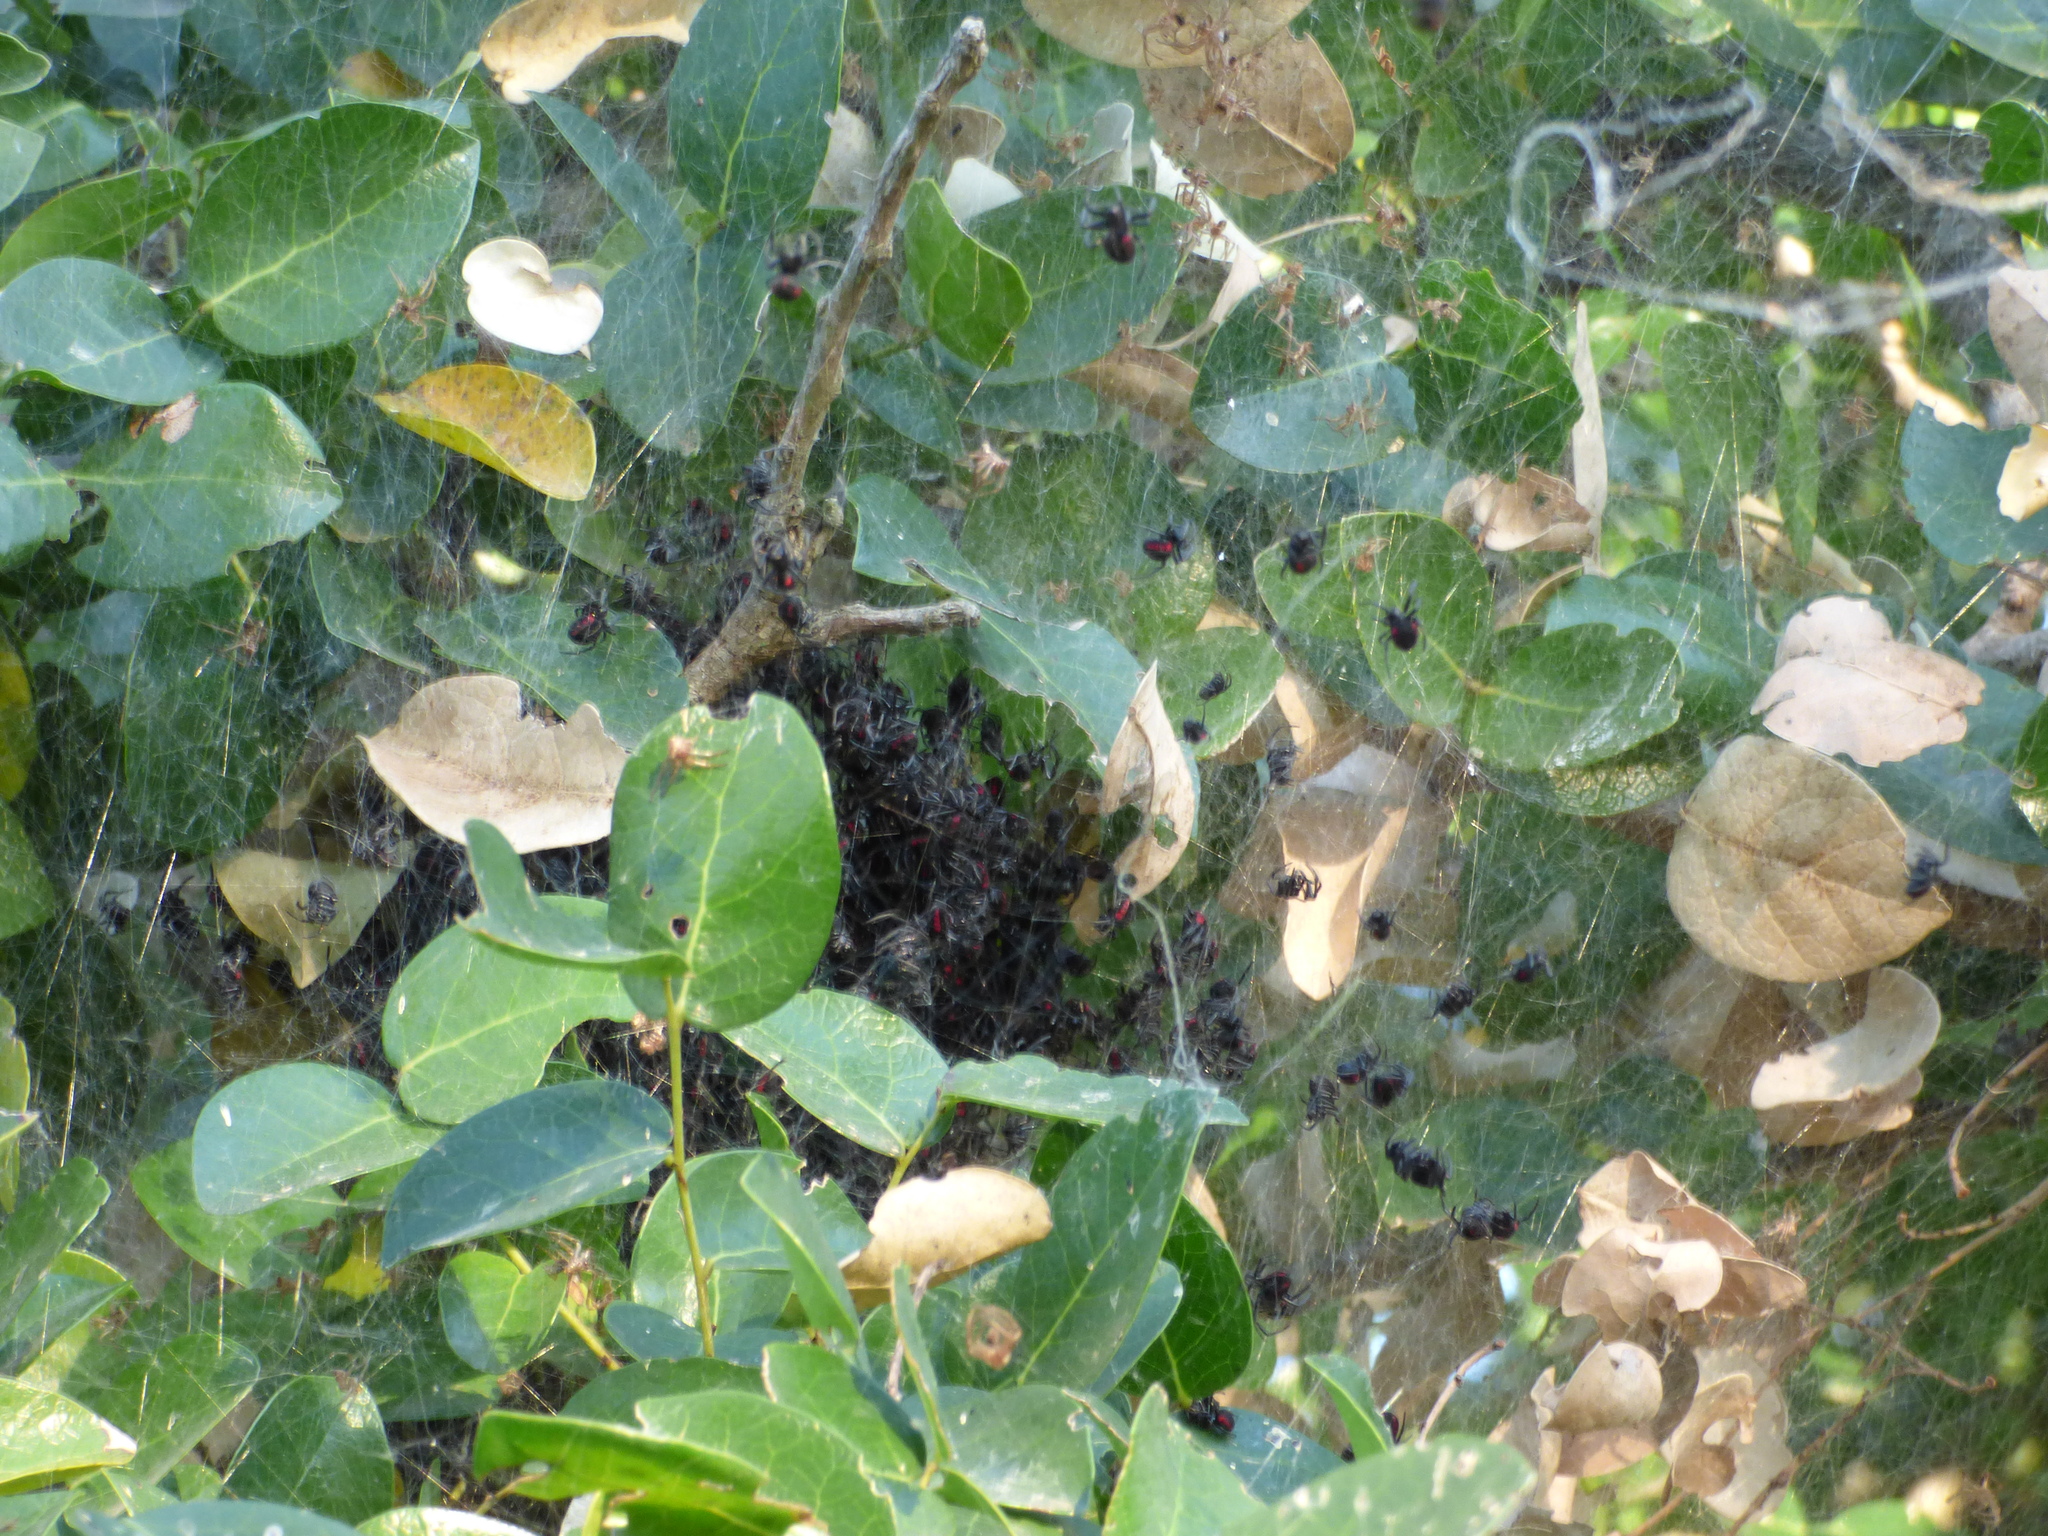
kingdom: Animalia
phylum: Arthropoda
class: Arachnida
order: Araneae
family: Araneidae
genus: Parawixia
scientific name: Parawixia bistriata
